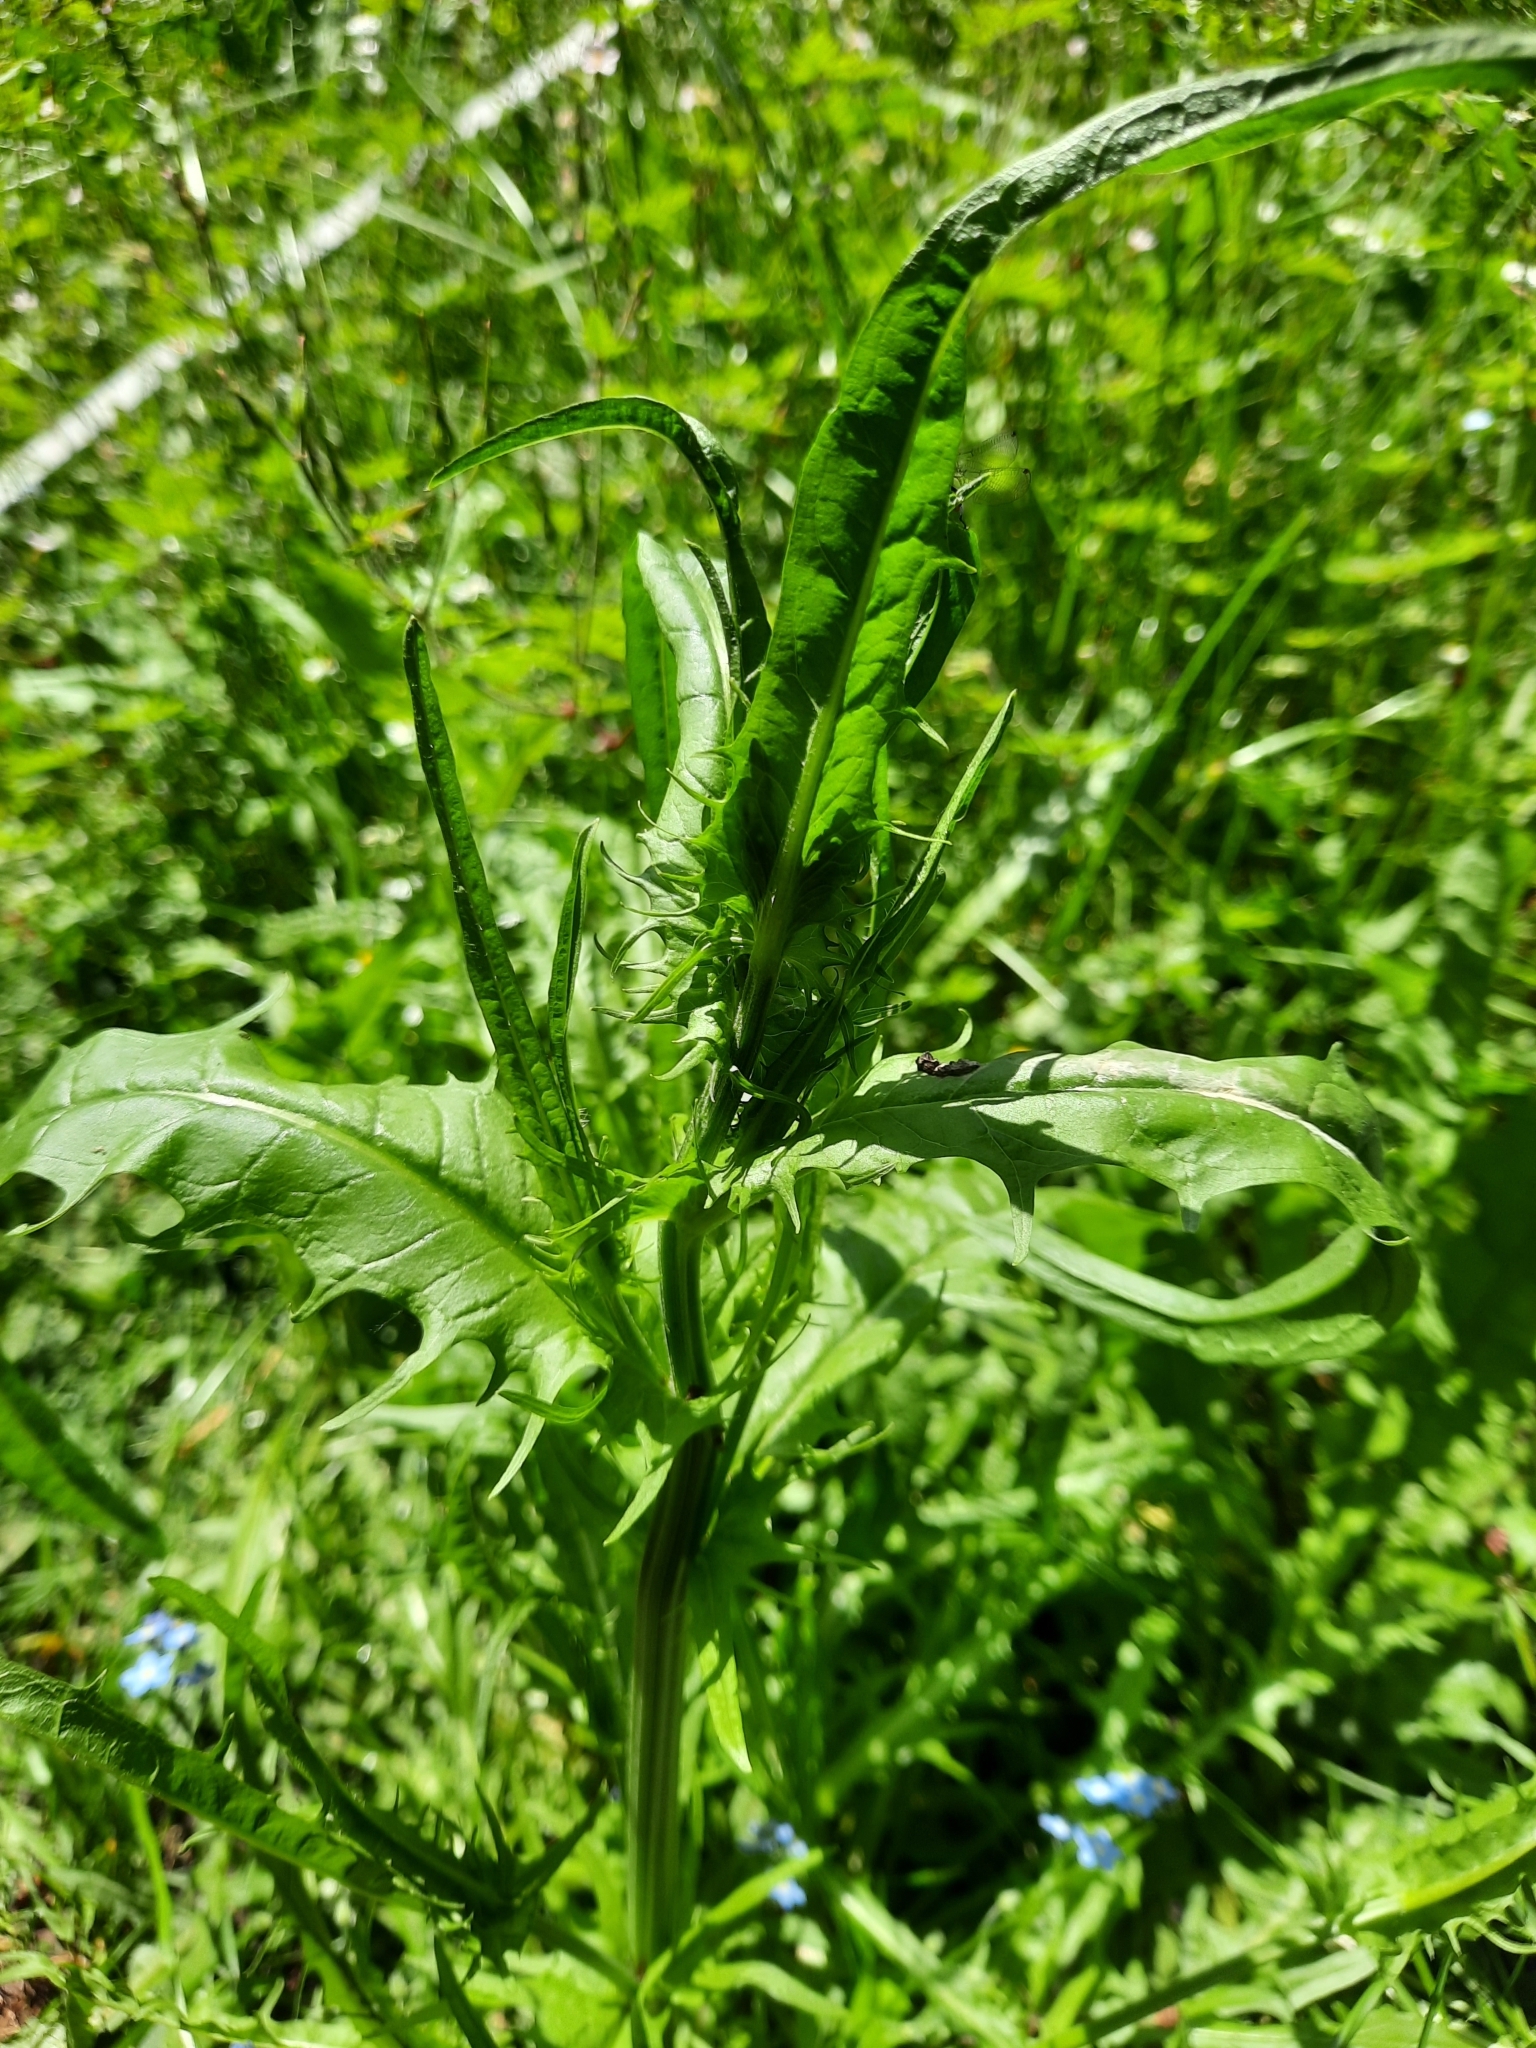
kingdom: Plantae
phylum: Tracheophyta
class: Magnoliopsida
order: Asterales
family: Asteraceae
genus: Crepis
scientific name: Crepis capillaris
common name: Smooth hawksbeard
